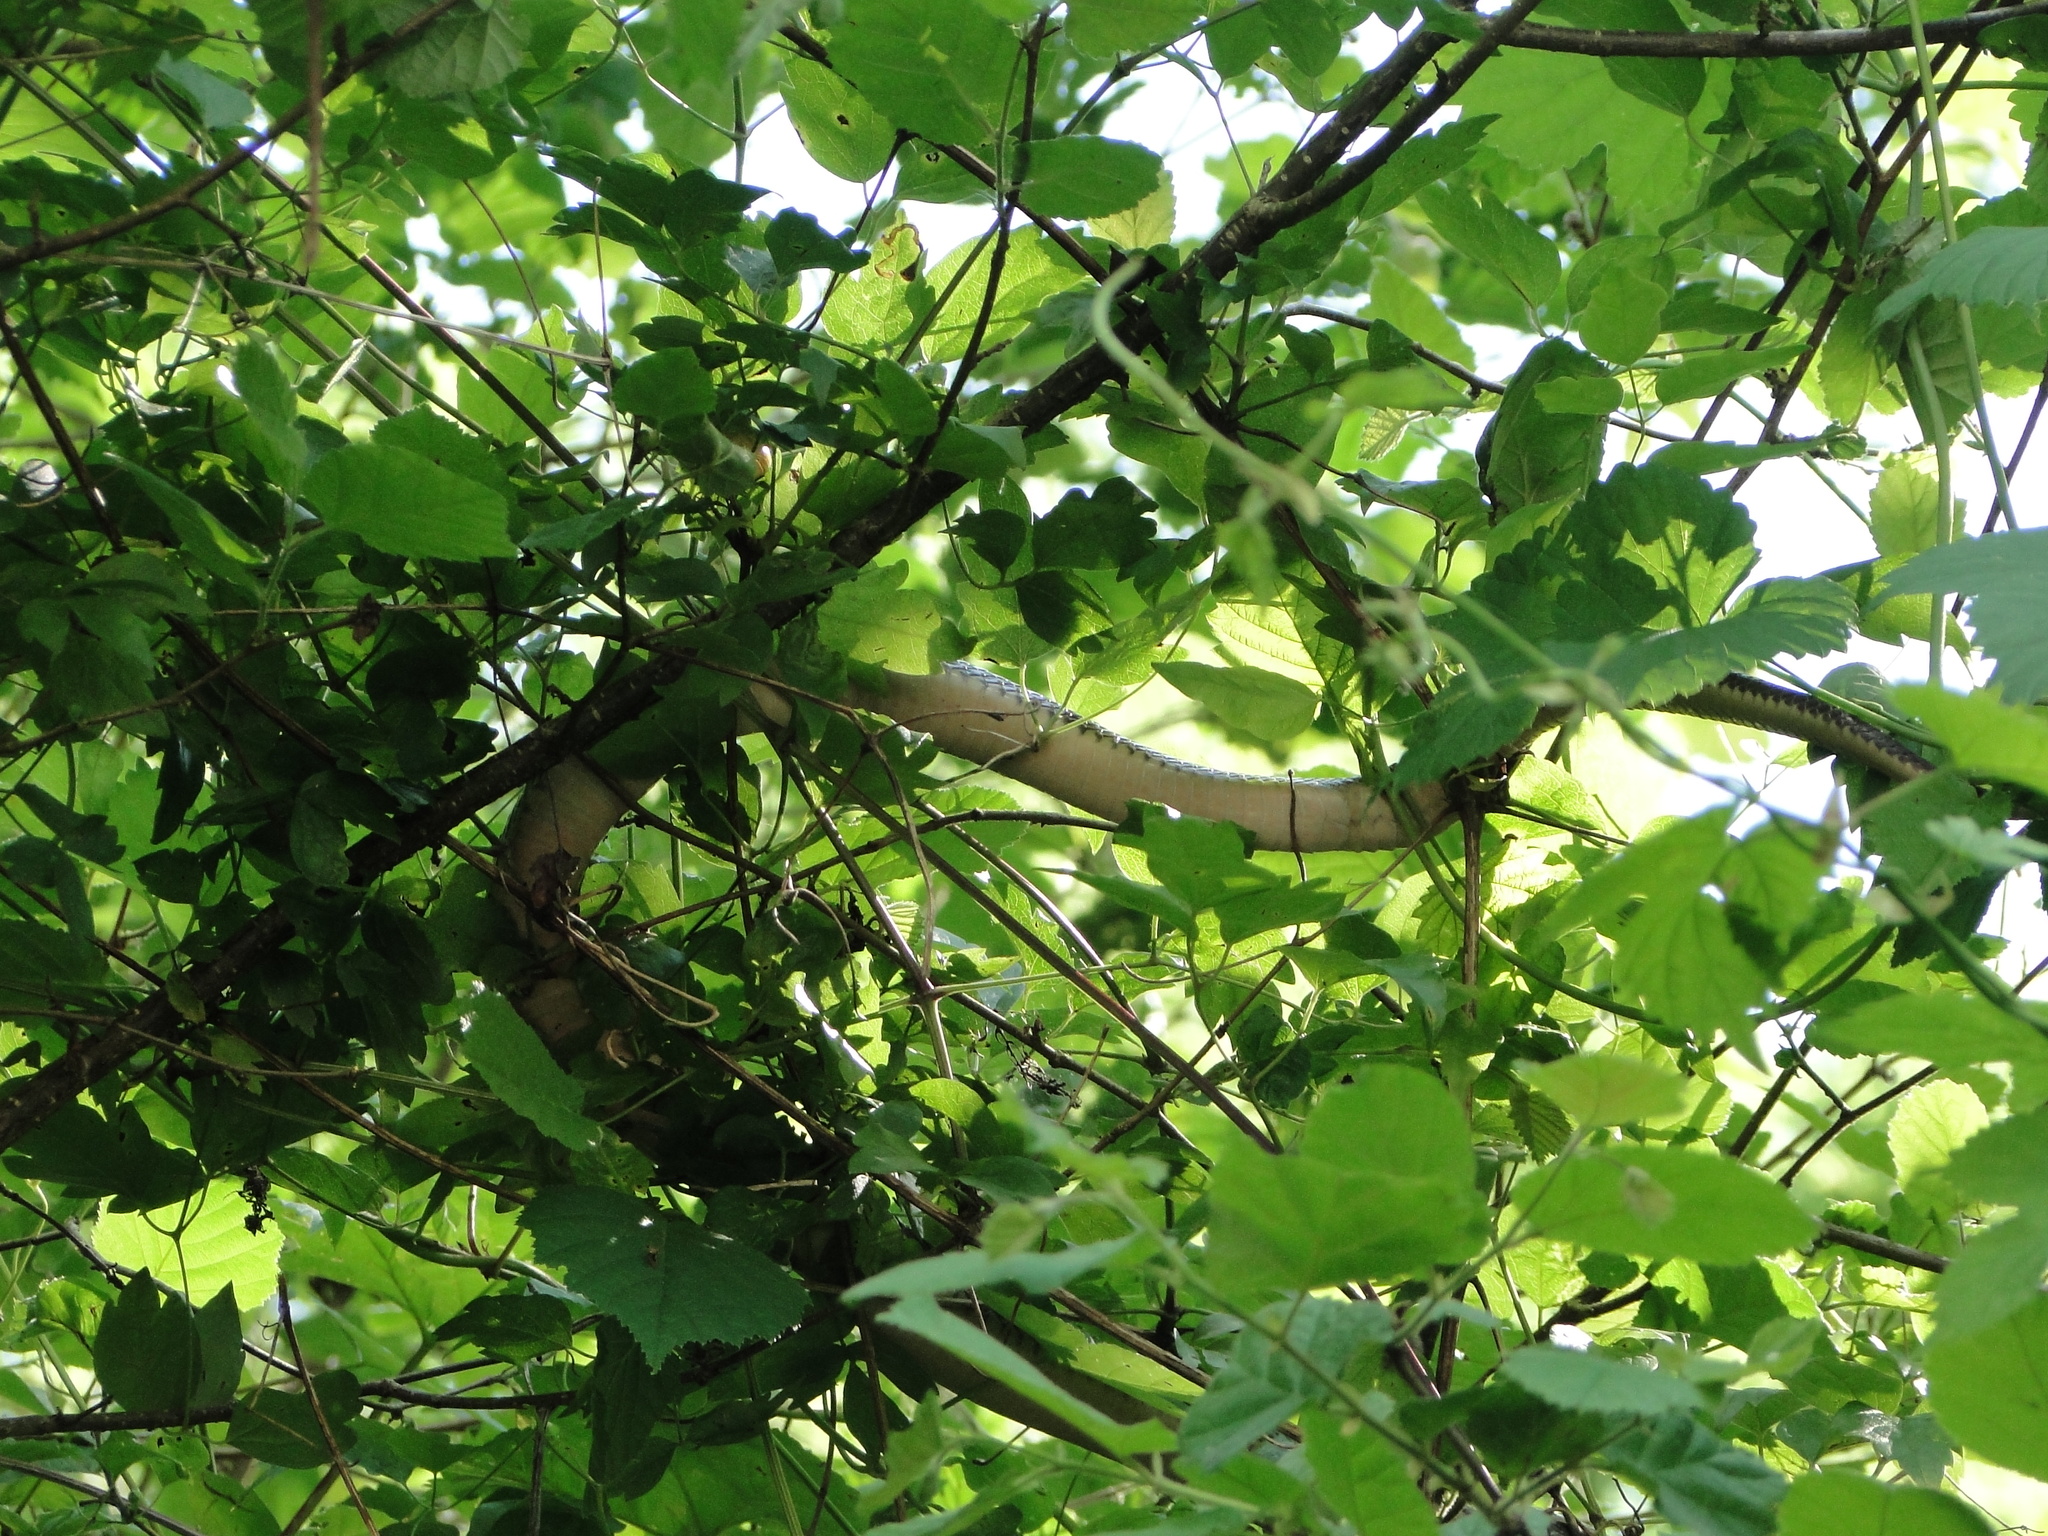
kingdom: Animalia
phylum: Chordata
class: Squamata
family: Colubridae
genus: Zamenis
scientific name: Zamenis longissimus
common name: Aesculapean snake
